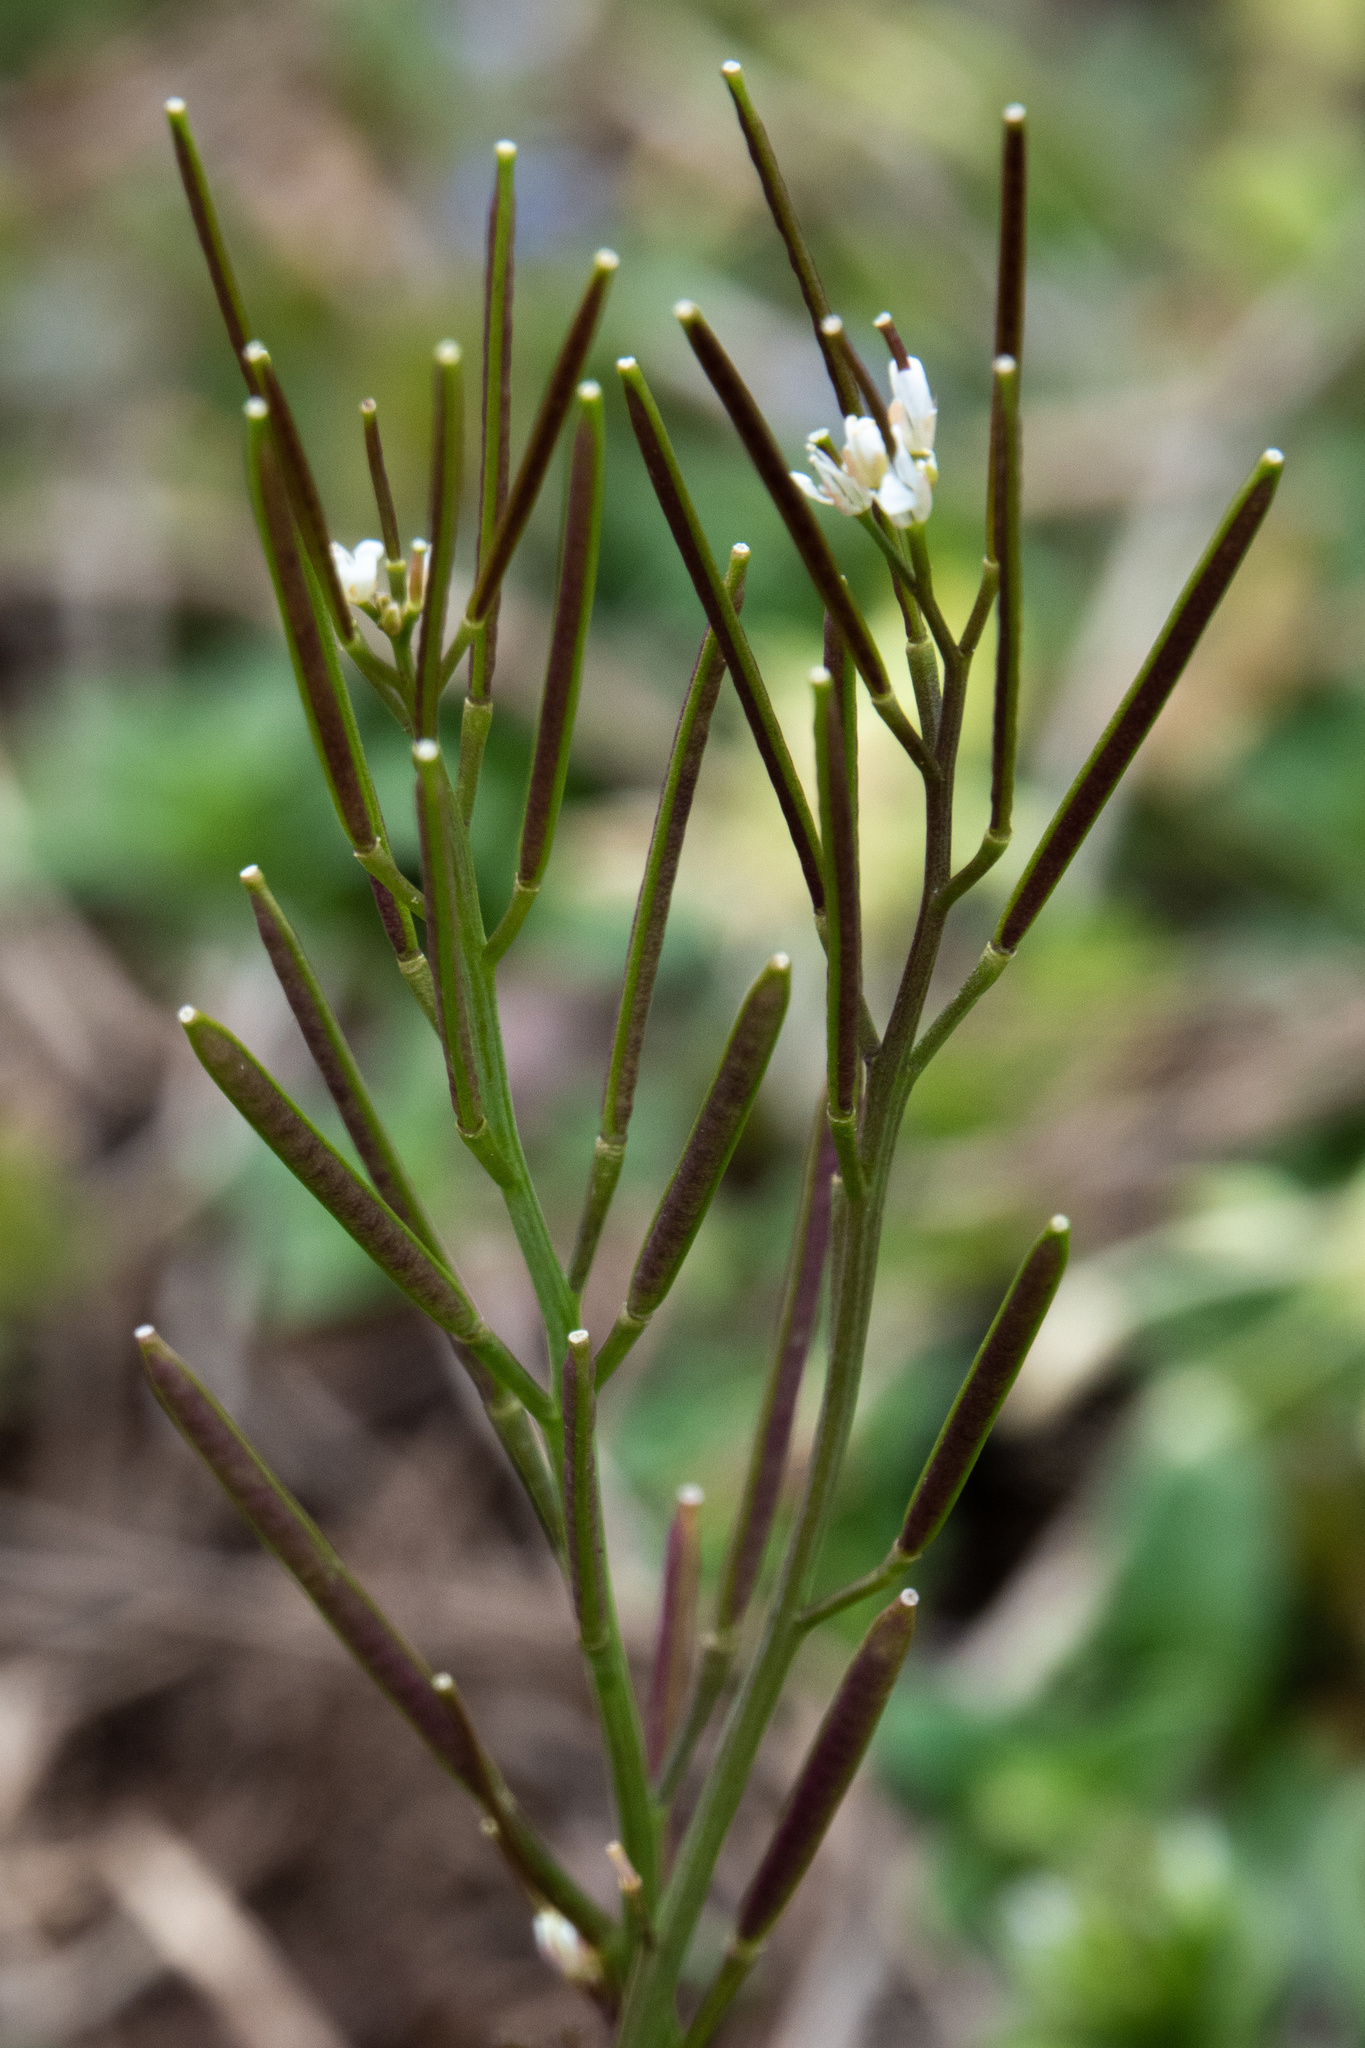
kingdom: Plantae
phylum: Tracheophyta
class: Magnoliopsida
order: Brassicales
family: Brassicaceae
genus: Cardamine
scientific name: Cardamine hirsuta
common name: Hairy bittercress
